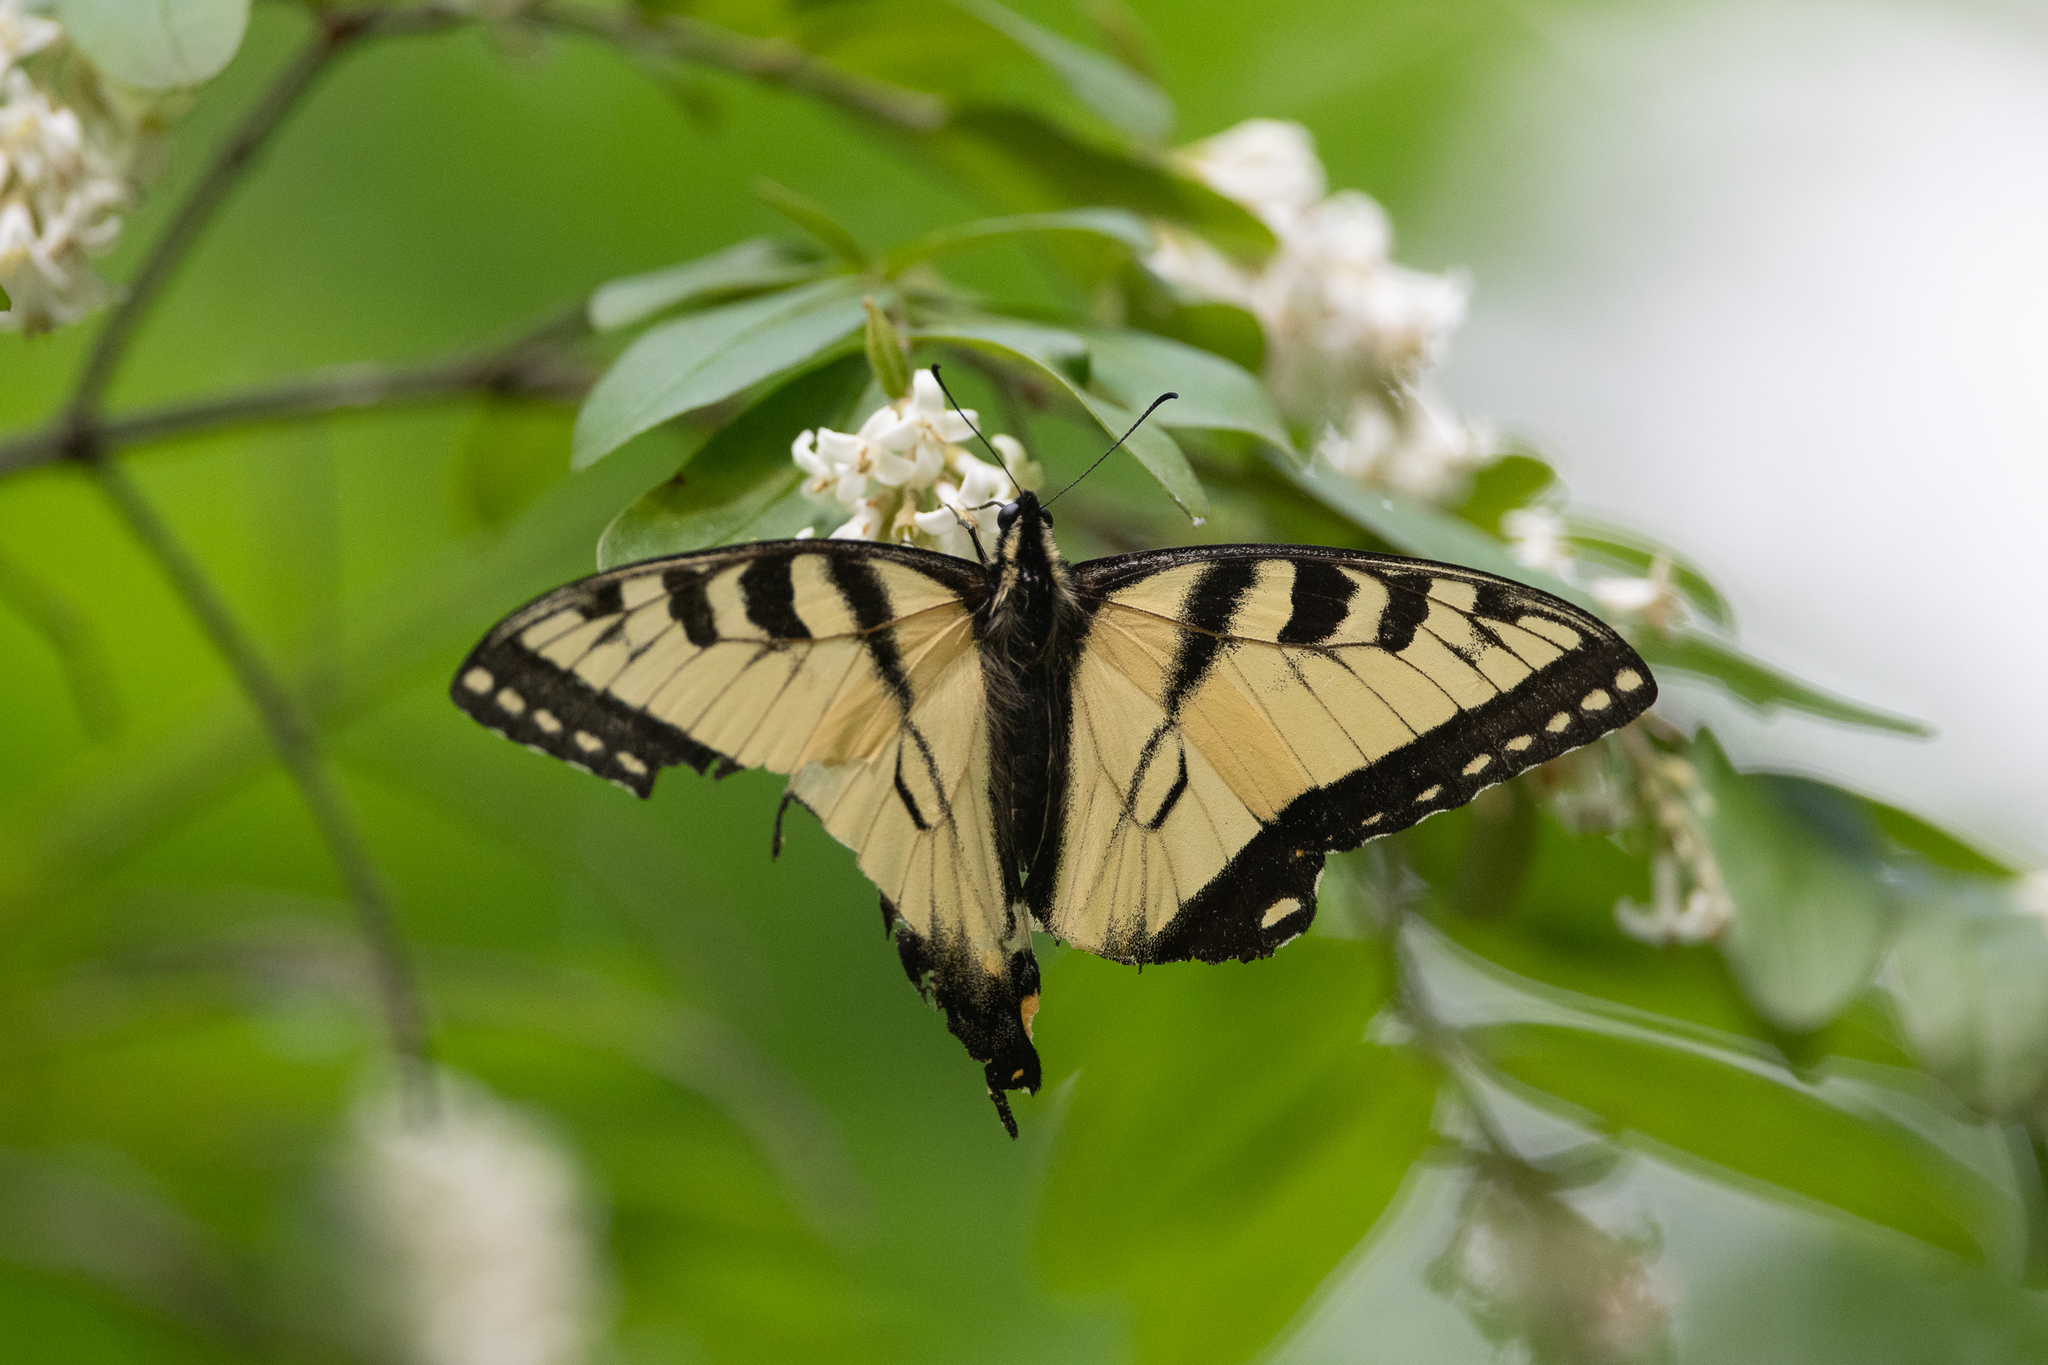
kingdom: Animalia
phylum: Arthropoda
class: Insecta
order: Lepidoptera
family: Papilionidae
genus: Papilio
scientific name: Papilio glaucus
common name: Tiger swallowtail
